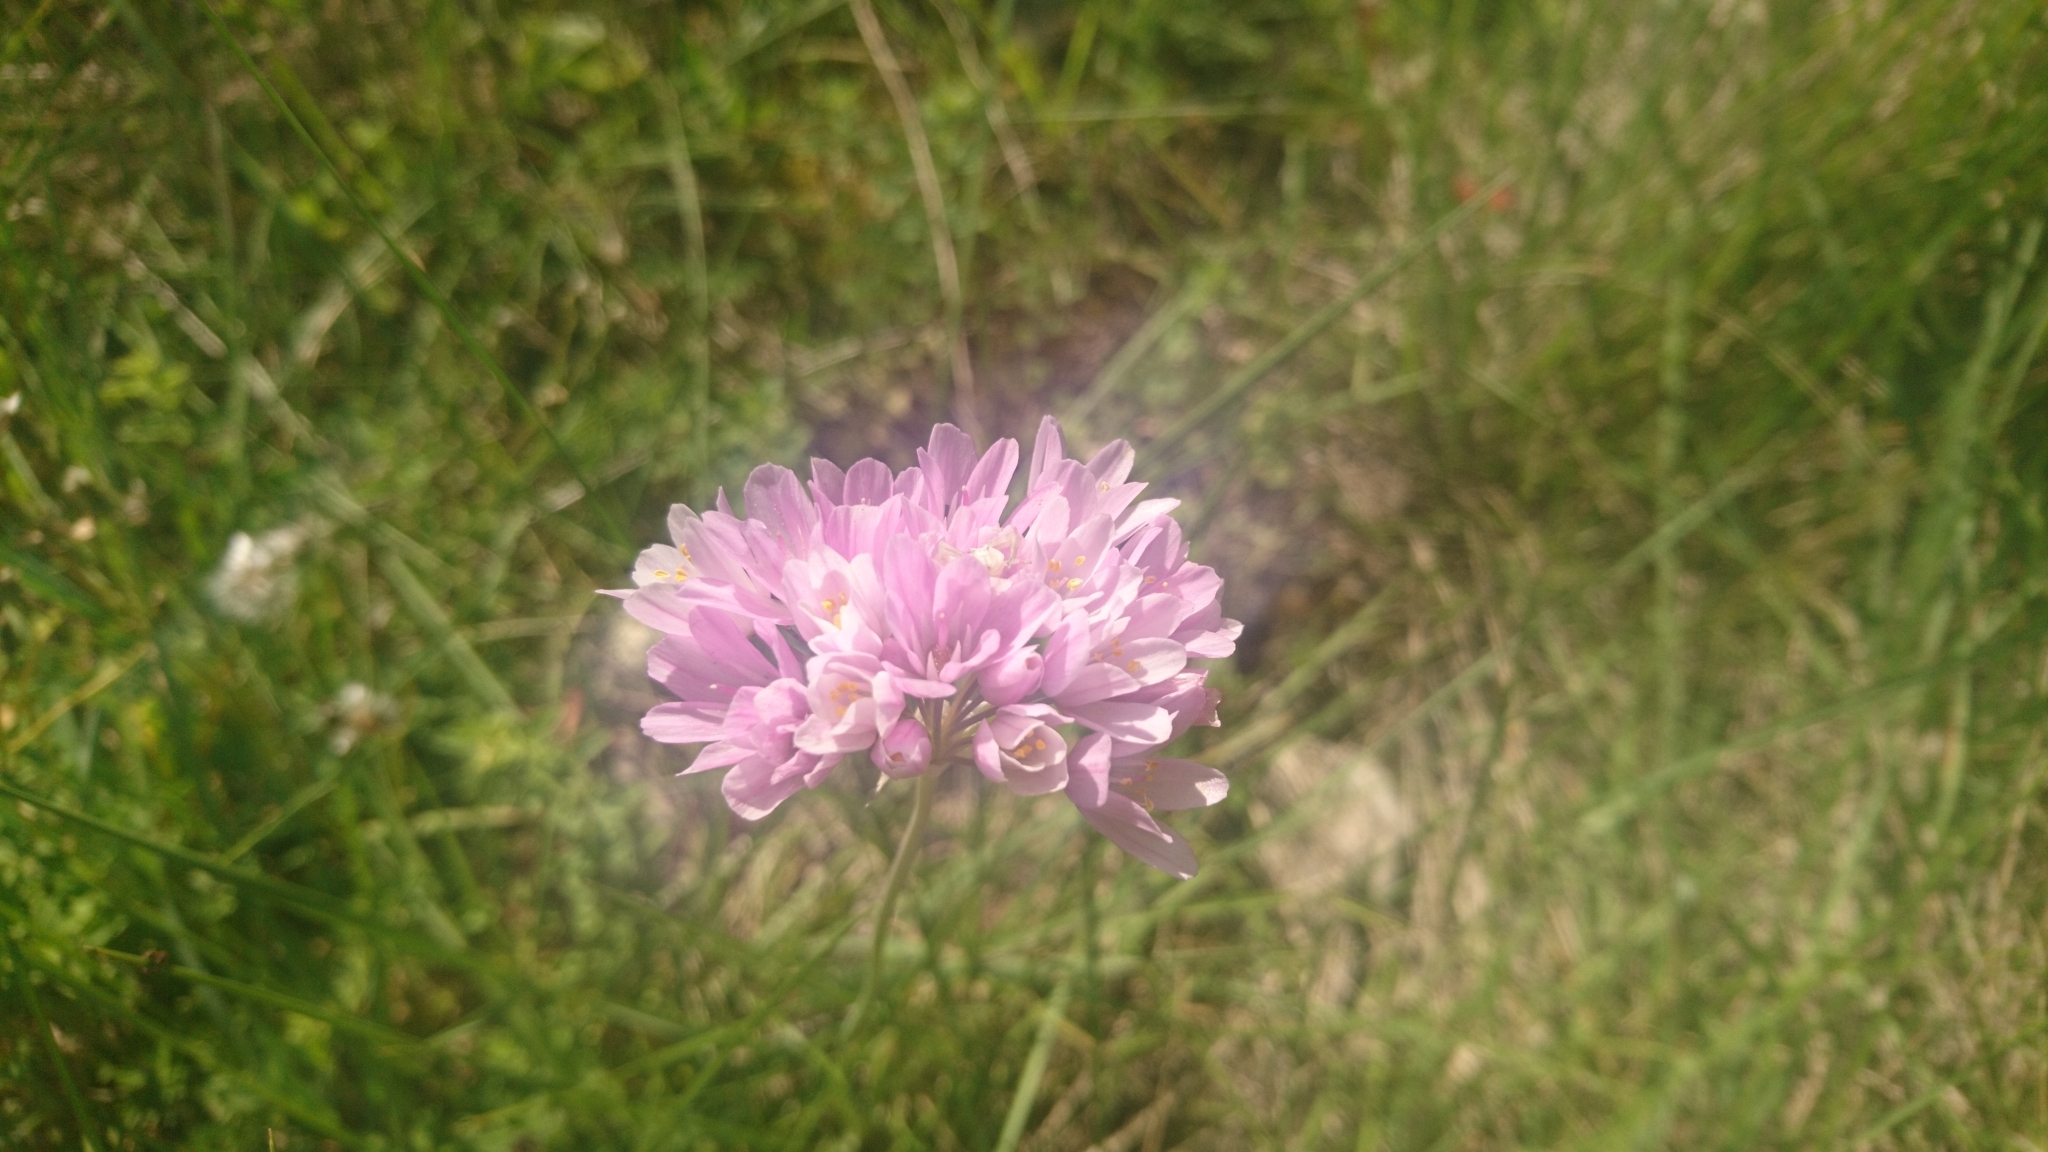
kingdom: Plantae
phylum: Tracheophyta
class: Liliopsida
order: Asparagales
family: Amaryllidaceae
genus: Allium
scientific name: Allium roseum
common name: Rosy garlic
